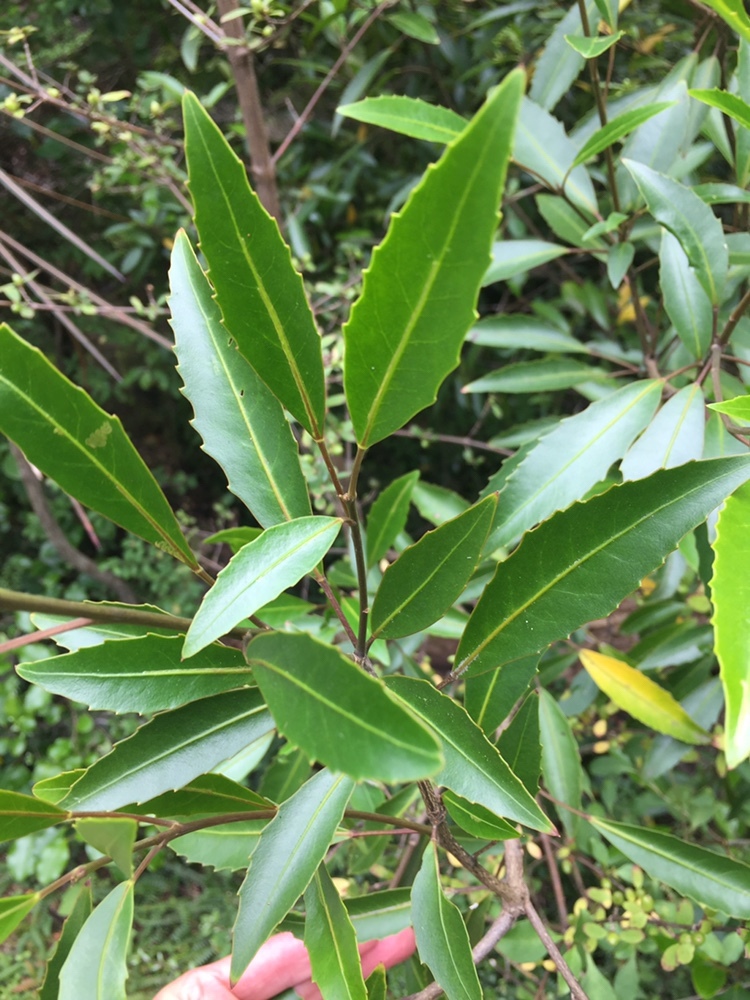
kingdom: Plantae
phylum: Tracheophyta
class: Magnoliopsida
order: Apiales
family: Araliaceae
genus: Raukaua
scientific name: Raukaua simplex
